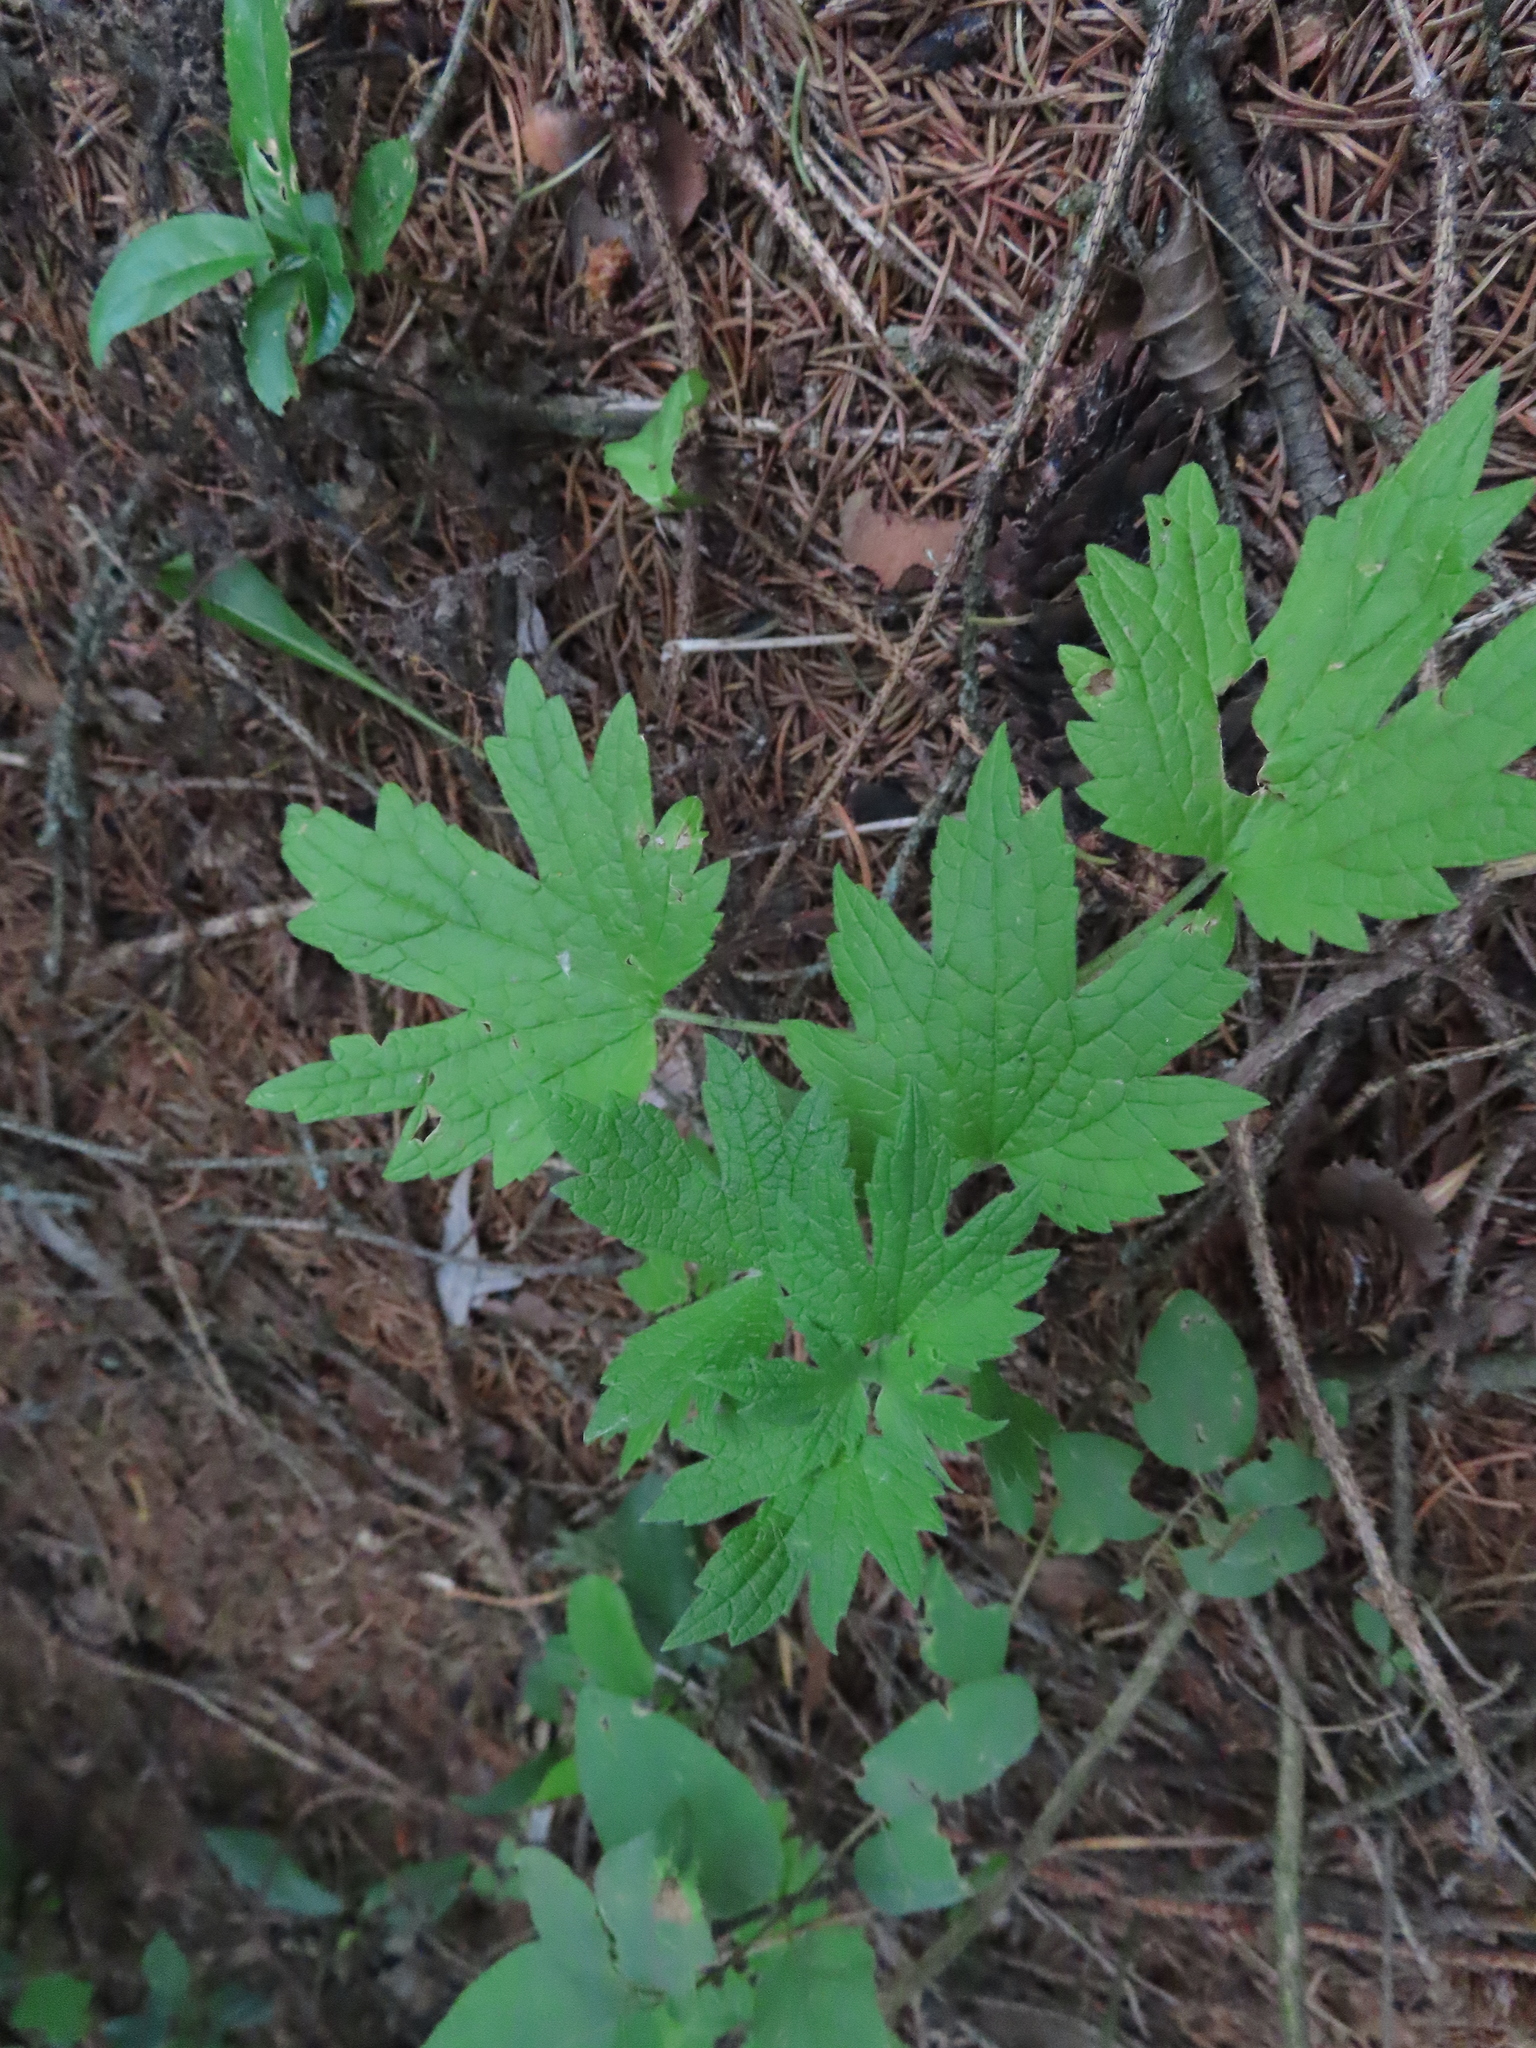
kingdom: Plantae
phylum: Tracheophyta
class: Magnoliopsida
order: Lamiales
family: Lamiaceae
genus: Leonurus
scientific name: Leonurus cardiaca
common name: Motherwort
